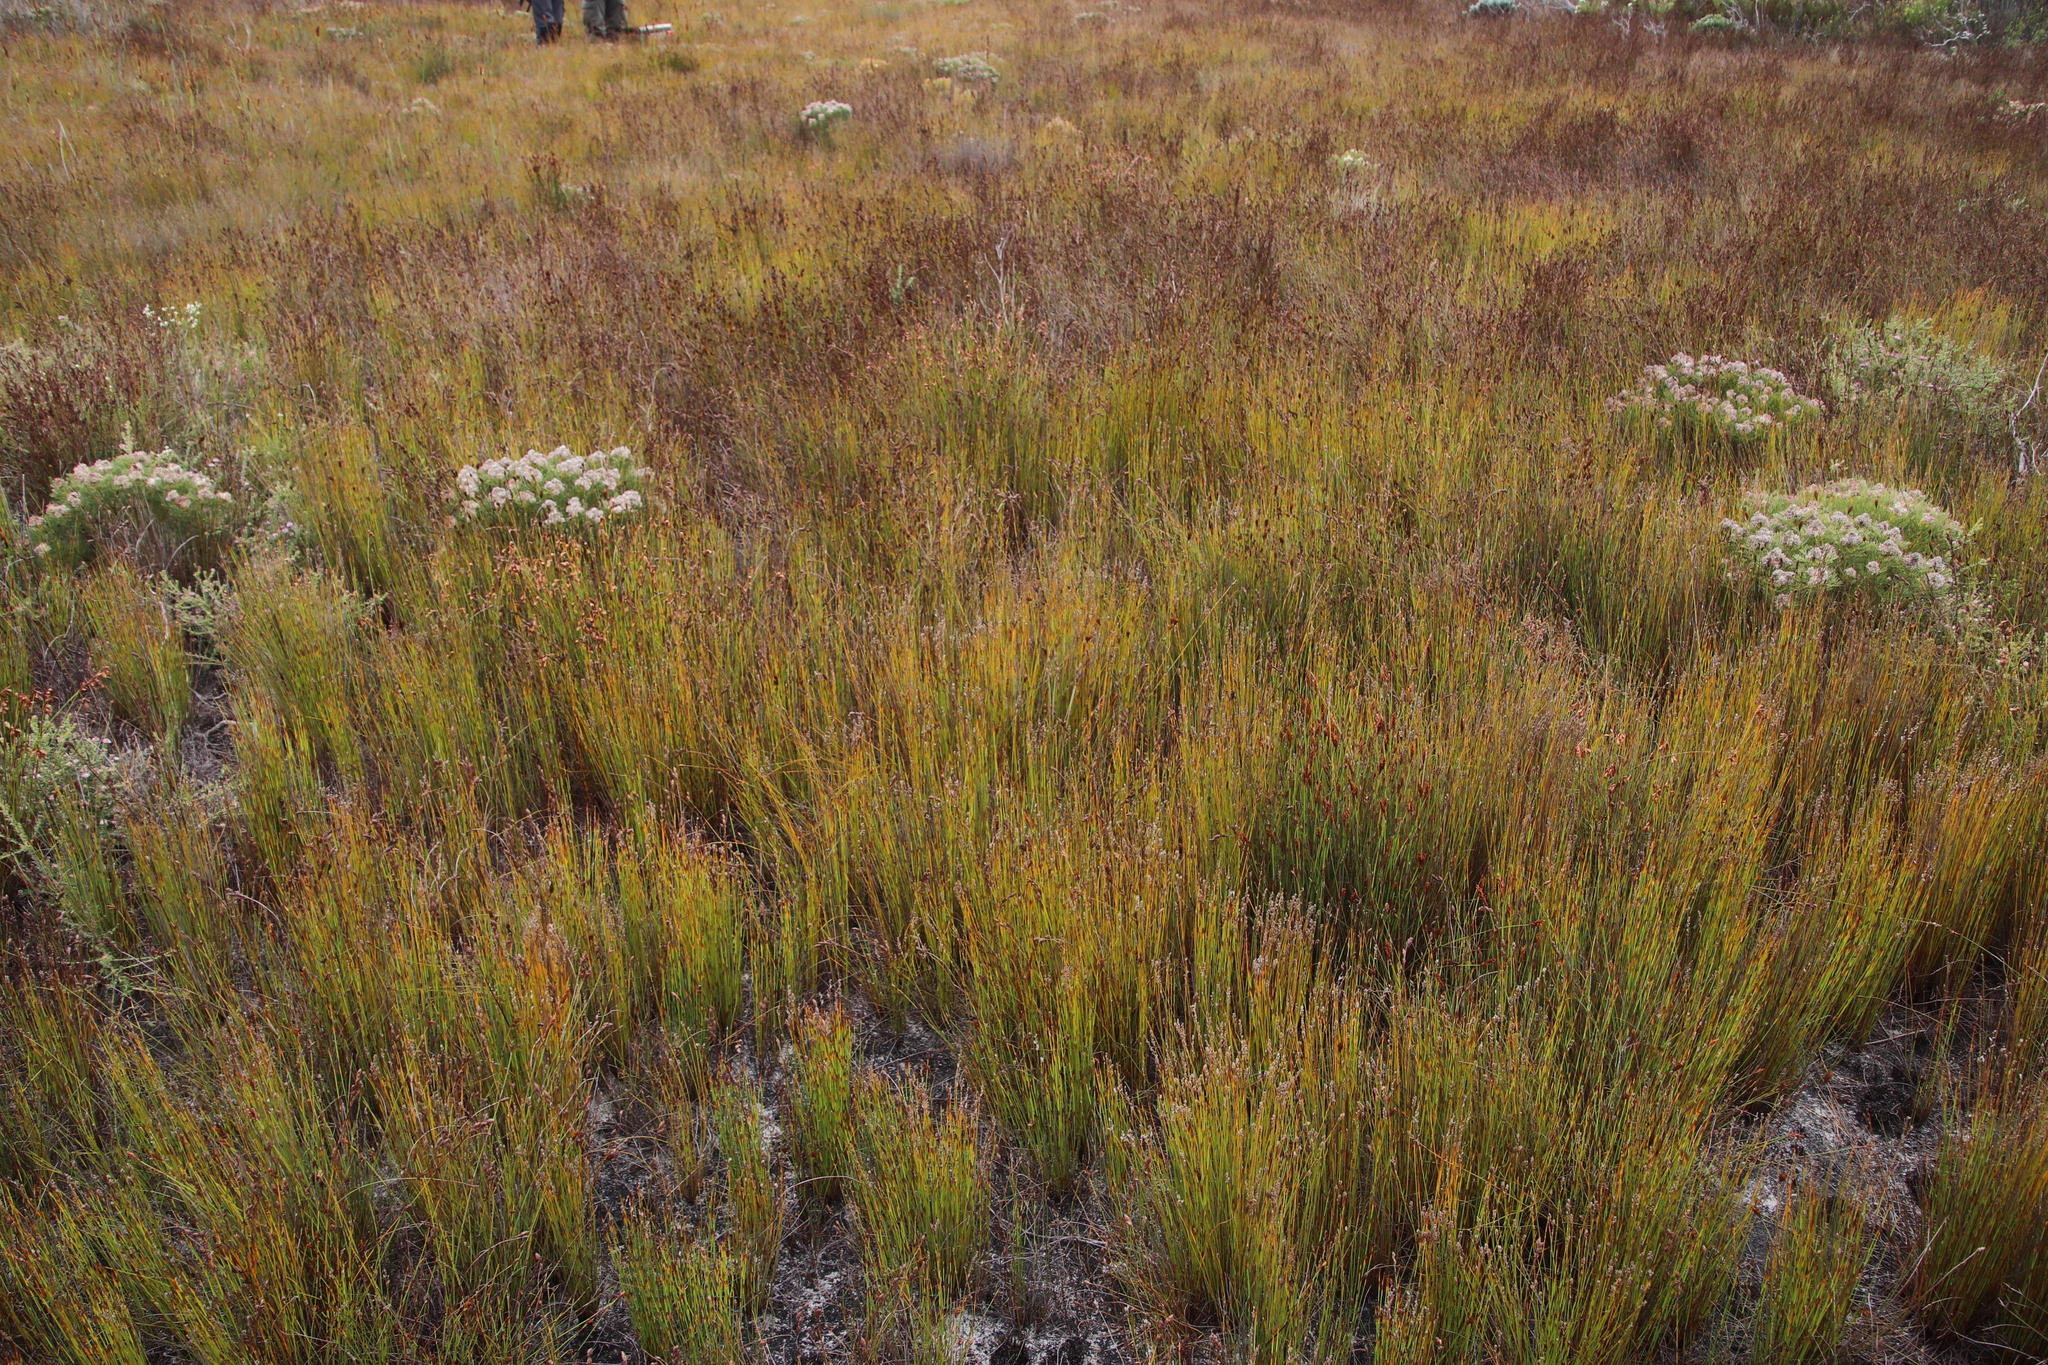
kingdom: Plantae
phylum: Tracheophyta
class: Liliopsida
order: Poales
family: Restionaceae
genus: Elegia
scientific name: Elegia filacea
